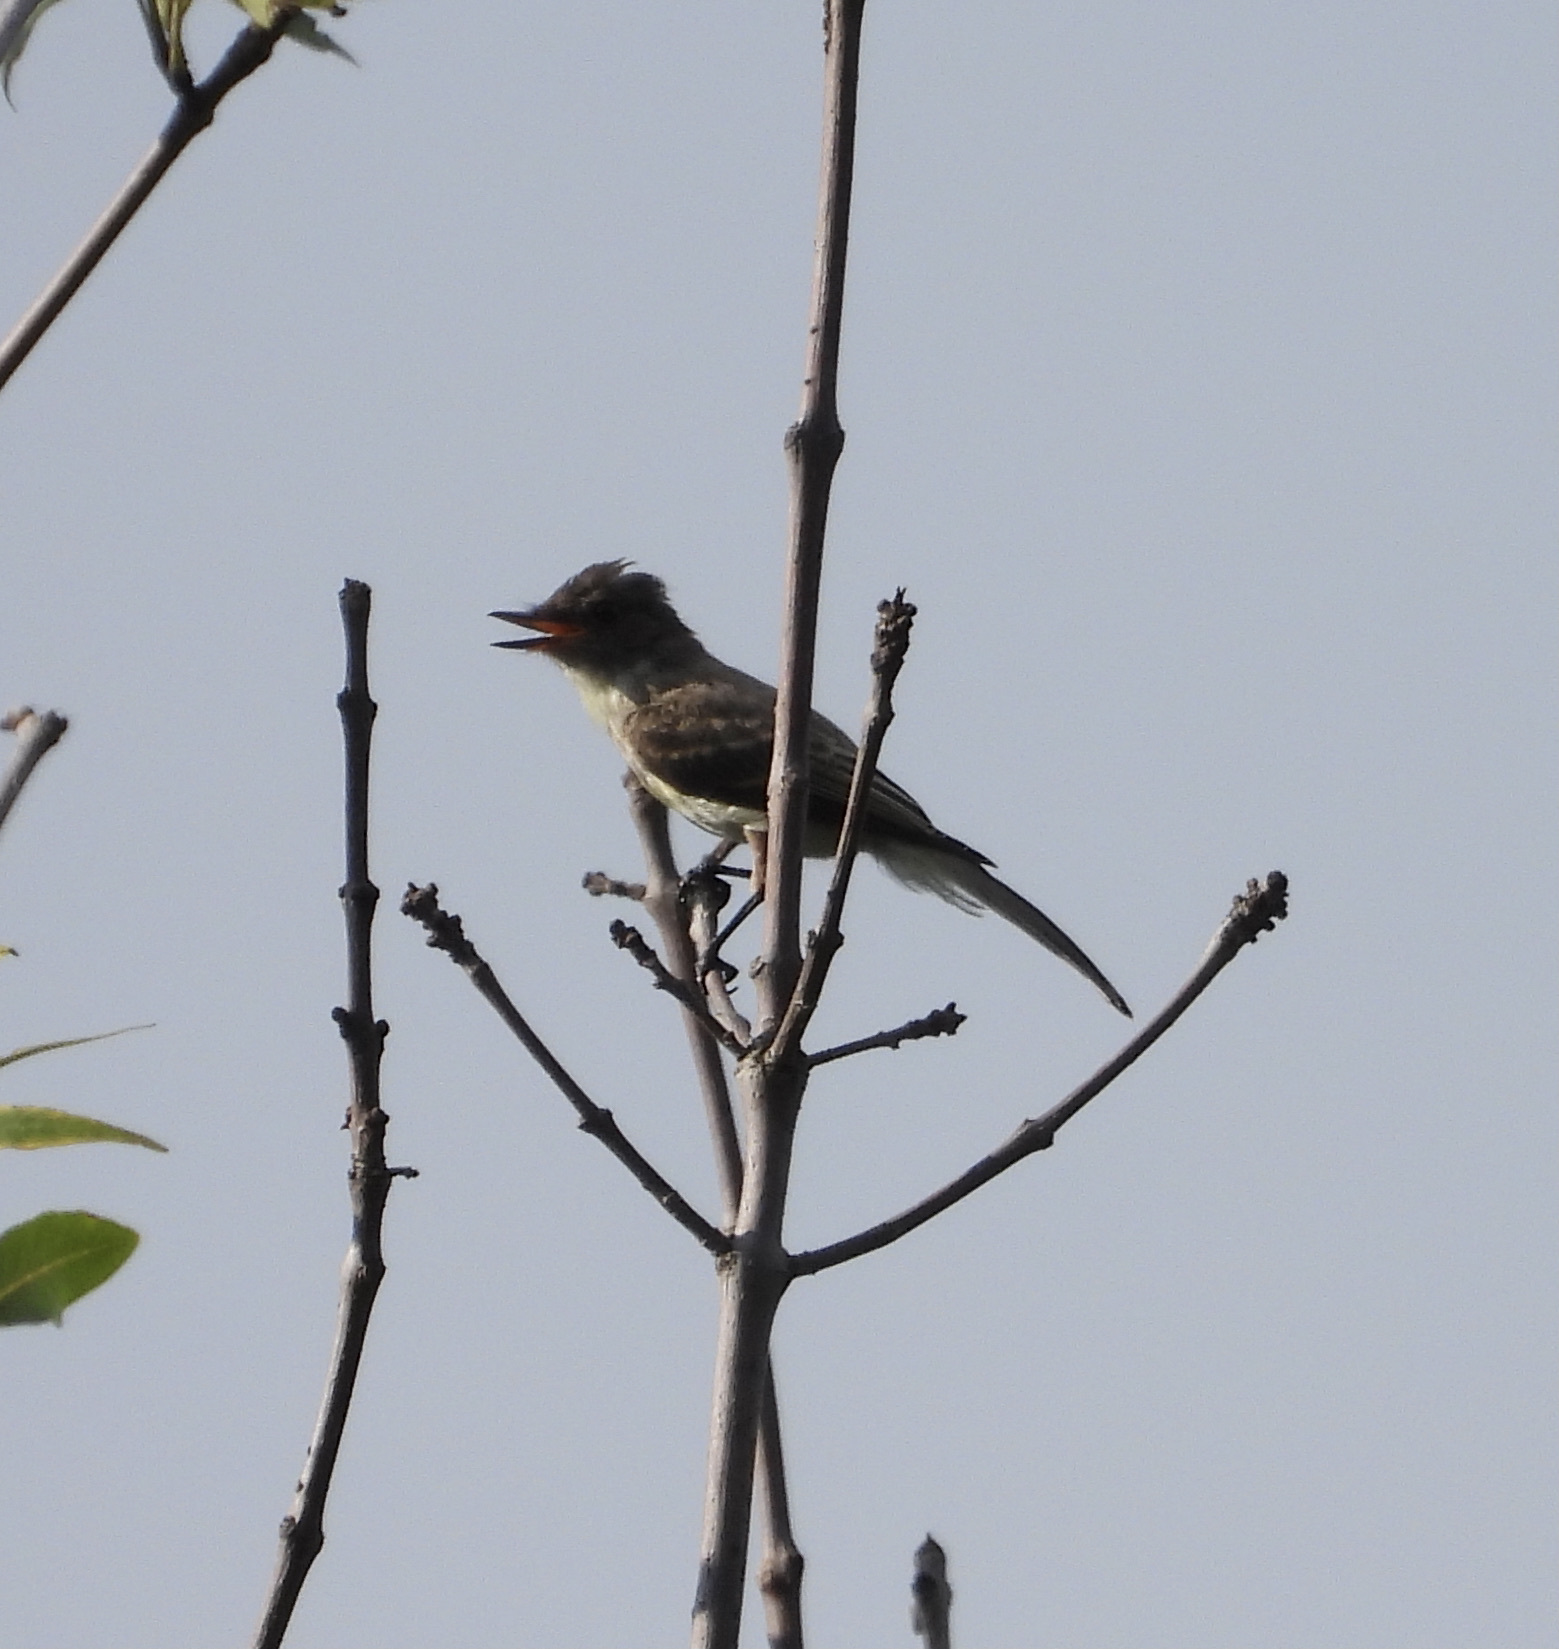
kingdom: Animalia
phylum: Chordata
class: Aves
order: Passeriformes
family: Tyrannidae
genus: Myiarchus
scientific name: Myiarchus crinitus
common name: Great crested flycatcher
